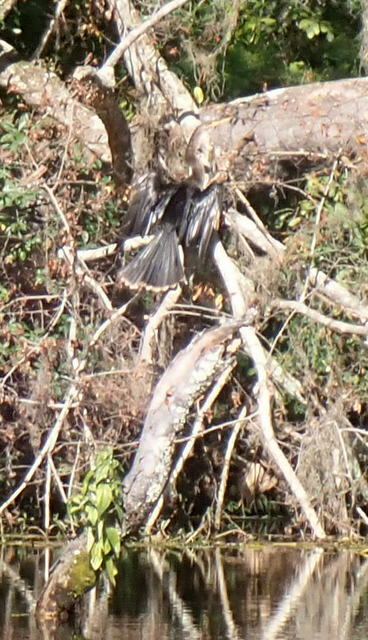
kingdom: Animalia
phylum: Chordata
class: Aves
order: Suliformes
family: Anhingidae
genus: Anhinga
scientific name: Anhinga anhinga
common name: Anhinga
